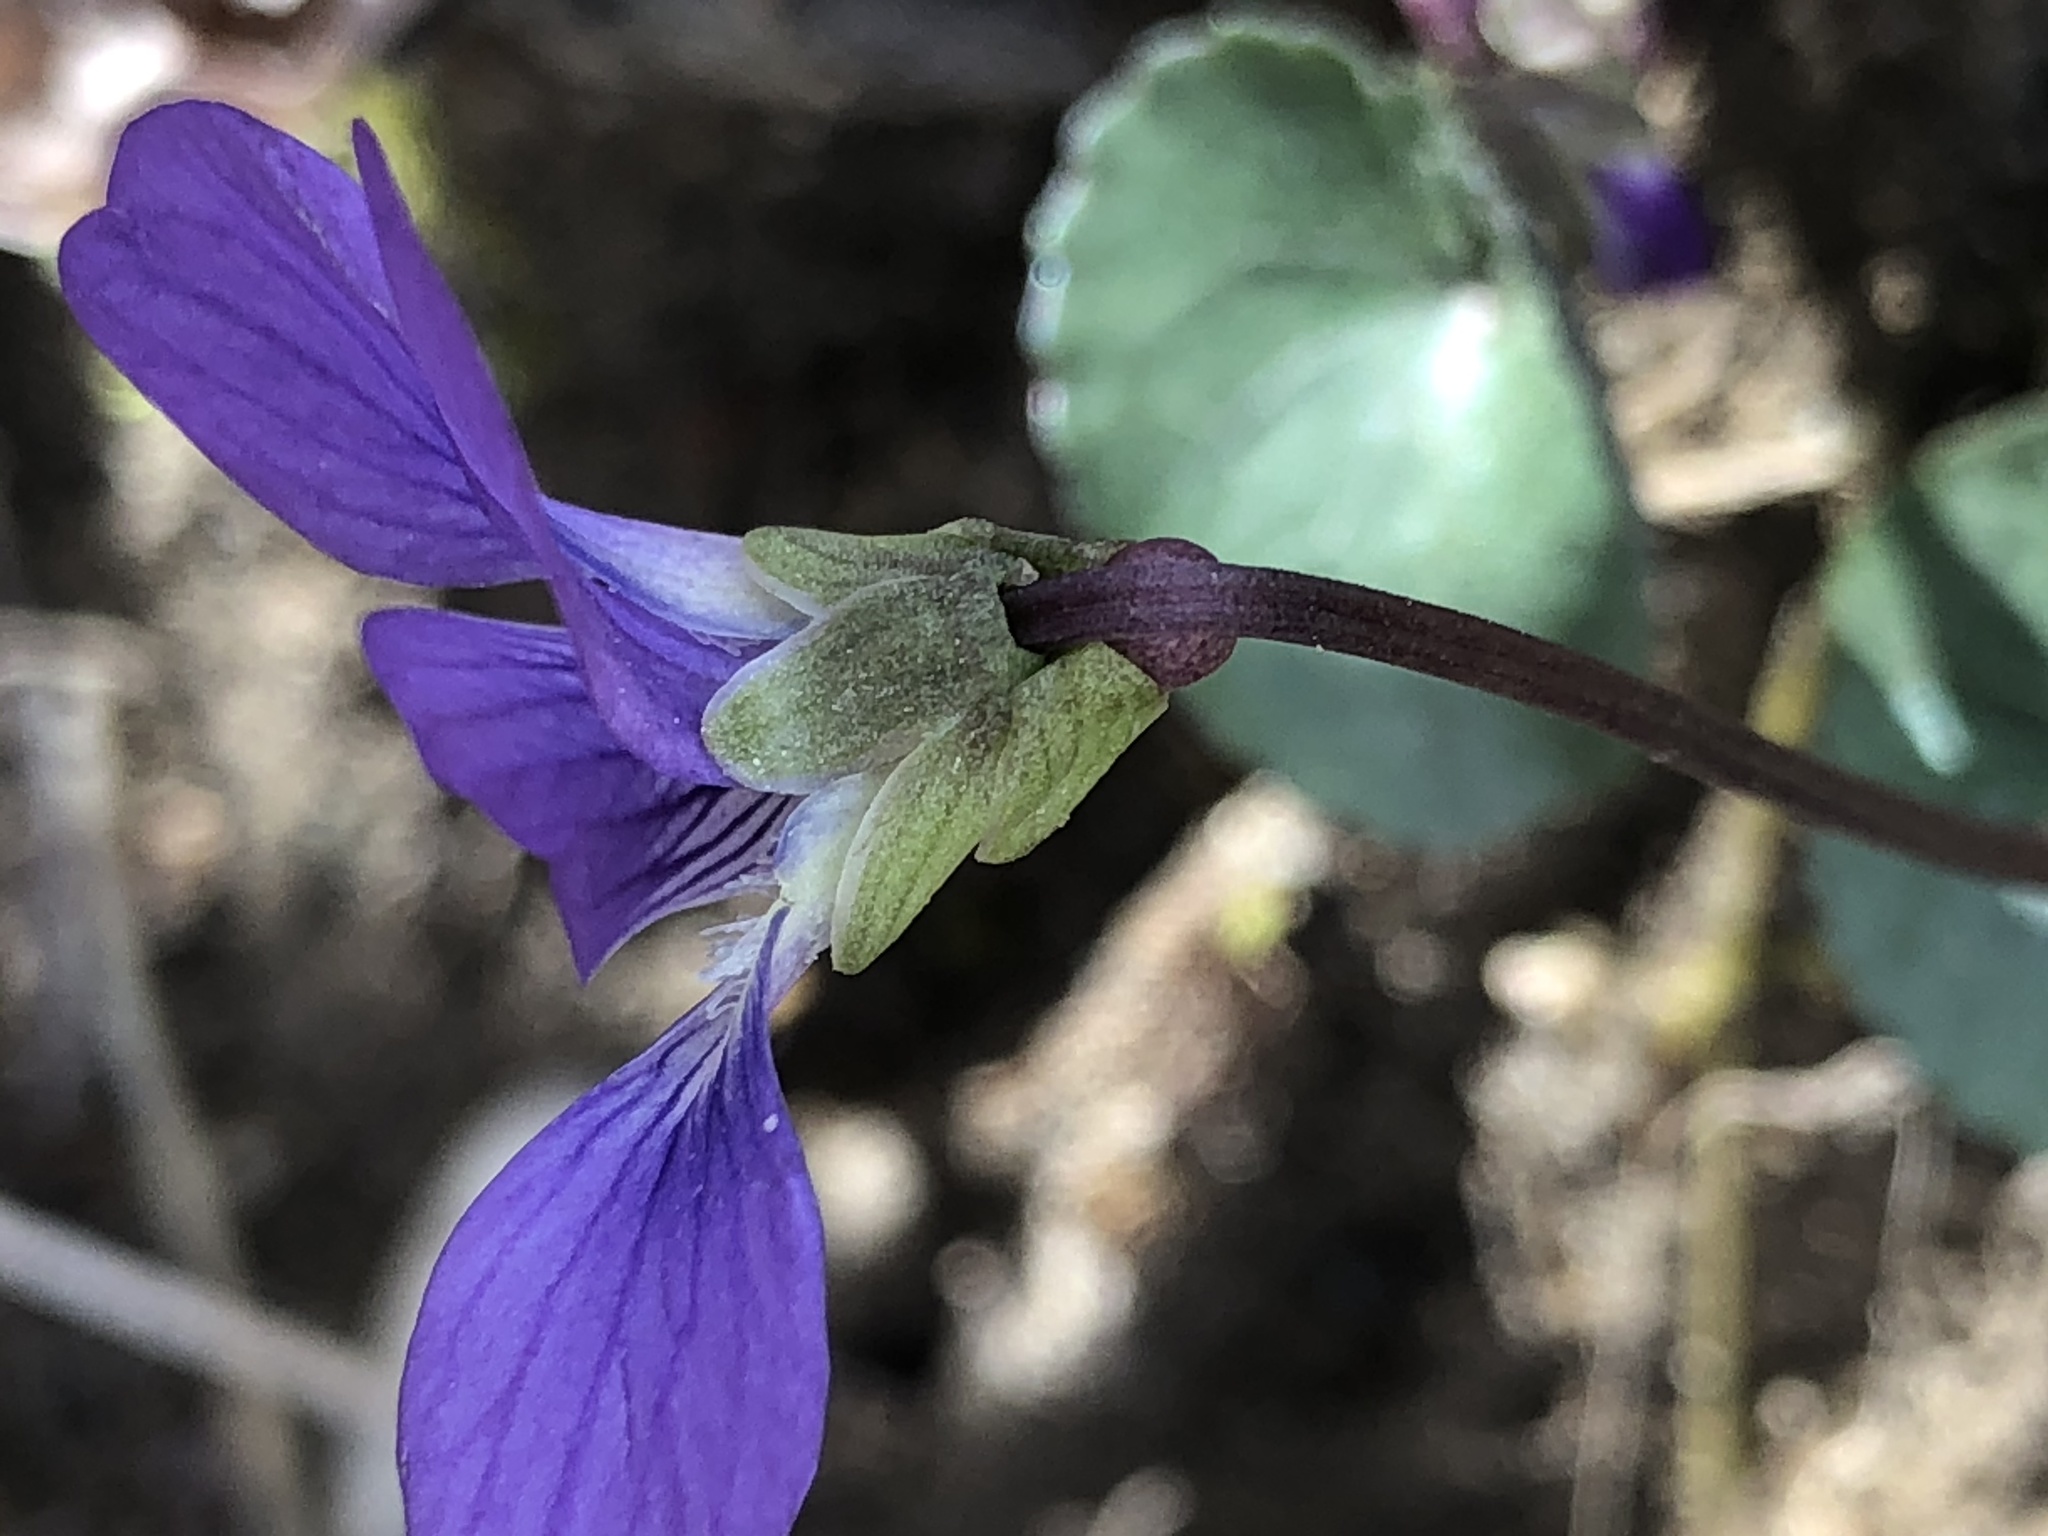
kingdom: Plantae
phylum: Tracheophyta
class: Magnoliopsida
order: Malpighiales
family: Violaceae
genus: Viola
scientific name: Viola sororia
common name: Dooryard violet
